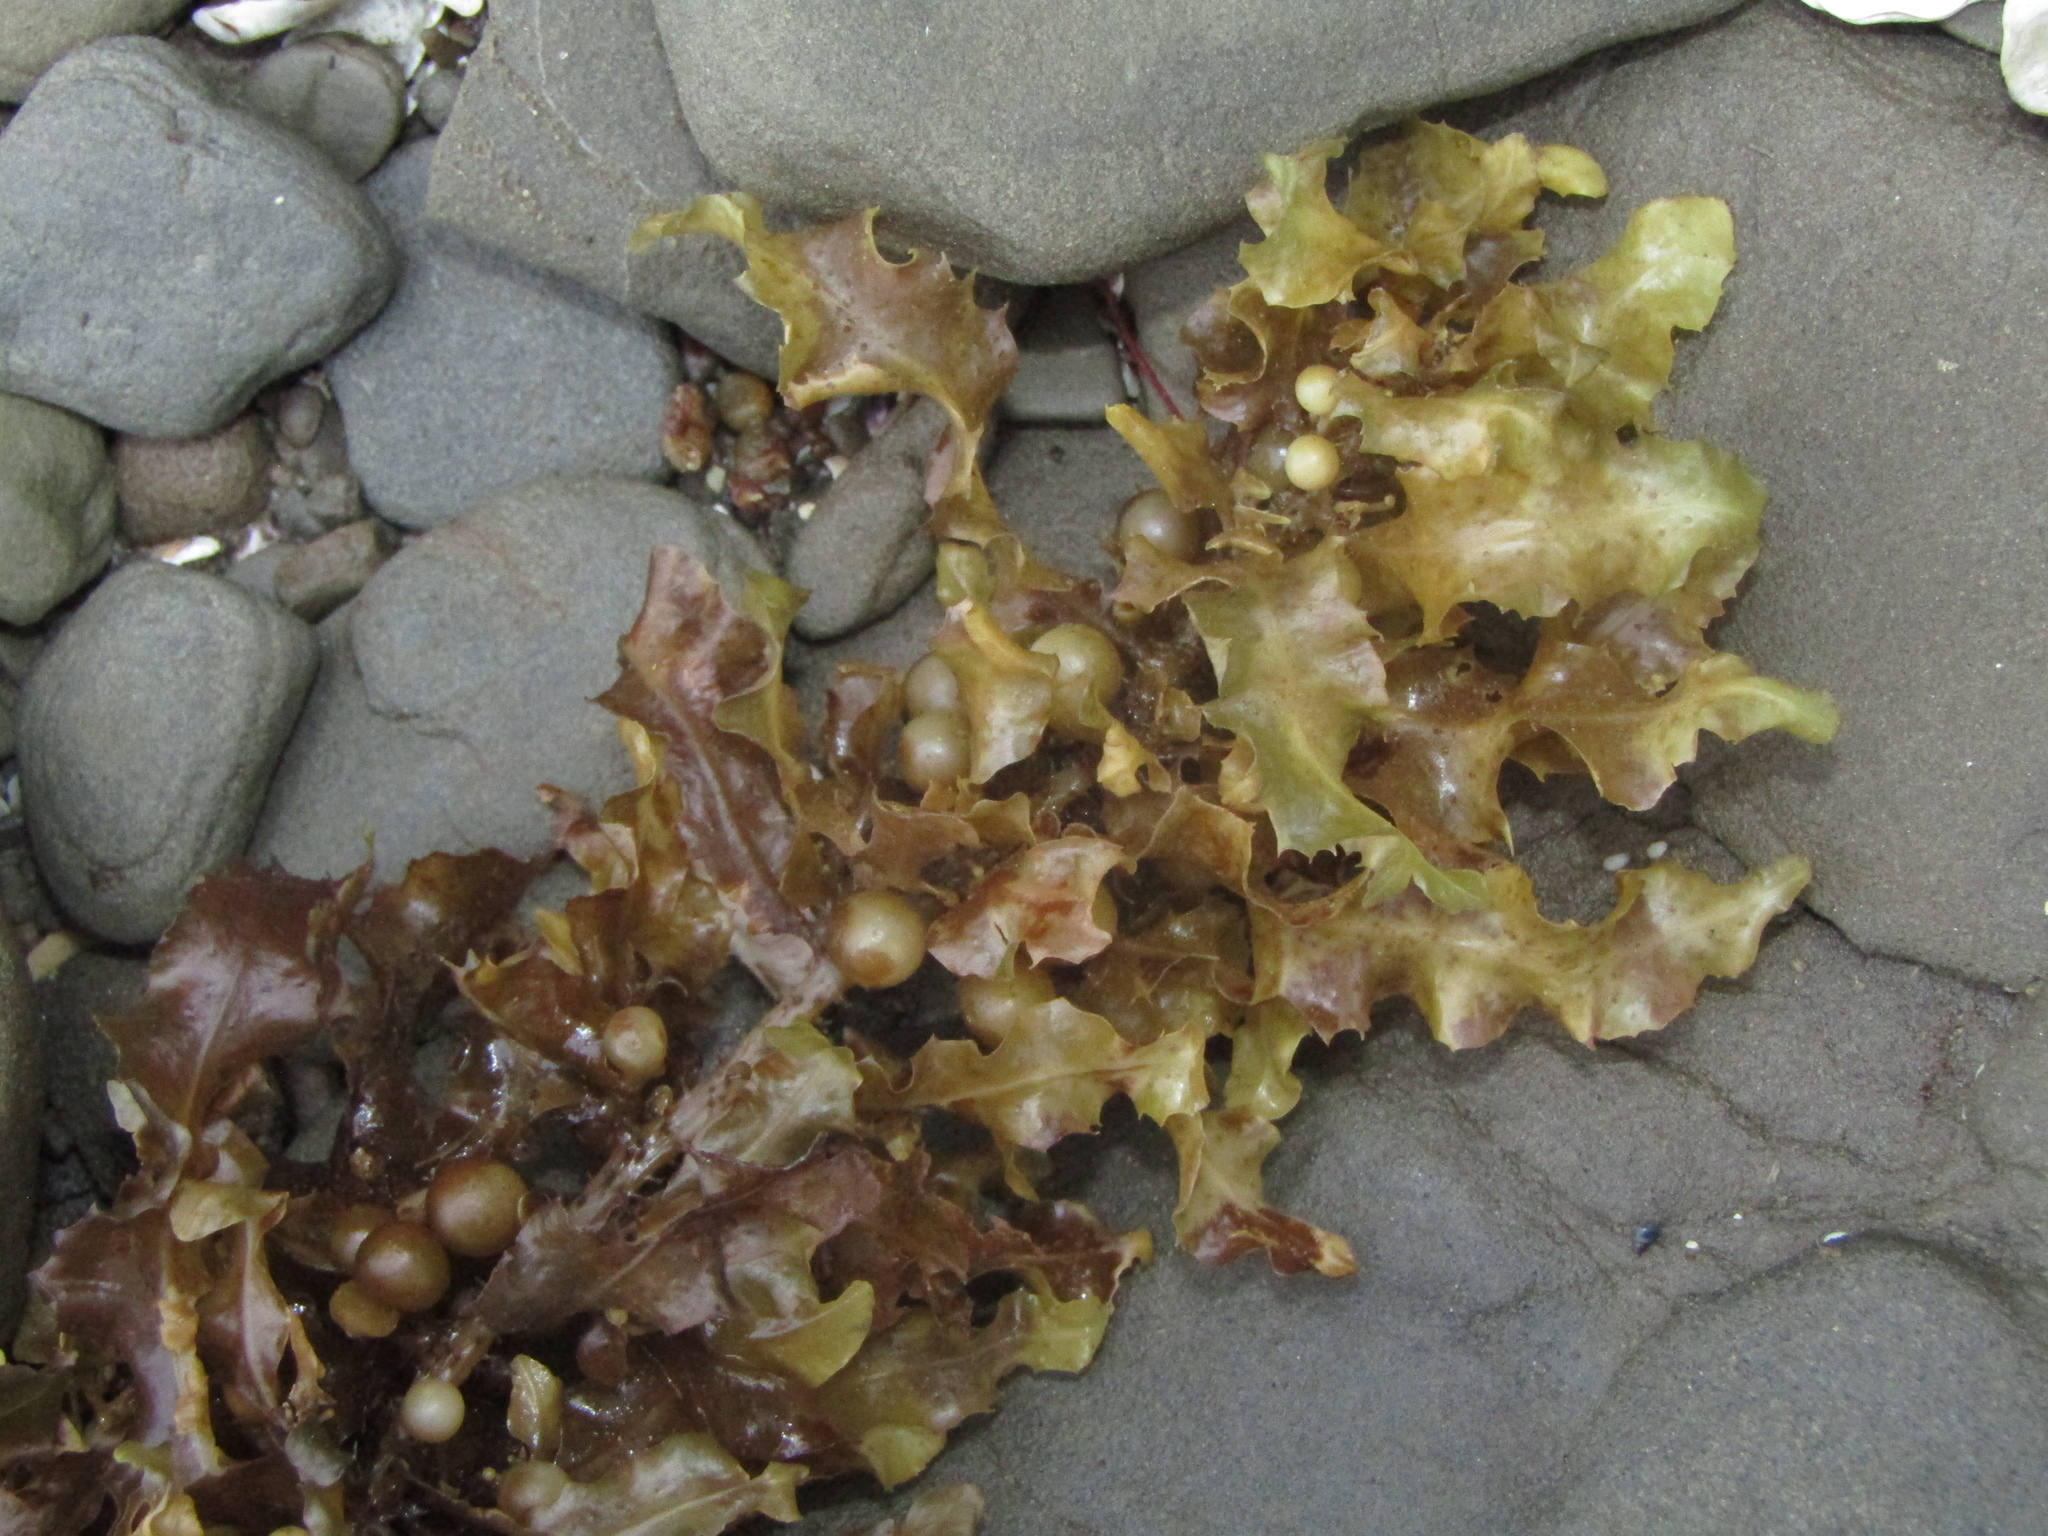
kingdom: Chromista
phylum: Ochrophyta
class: Phaeophyceae
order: Fucales
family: Sargassaceae
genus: Sargassum
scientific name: Sargassum sinclairii
